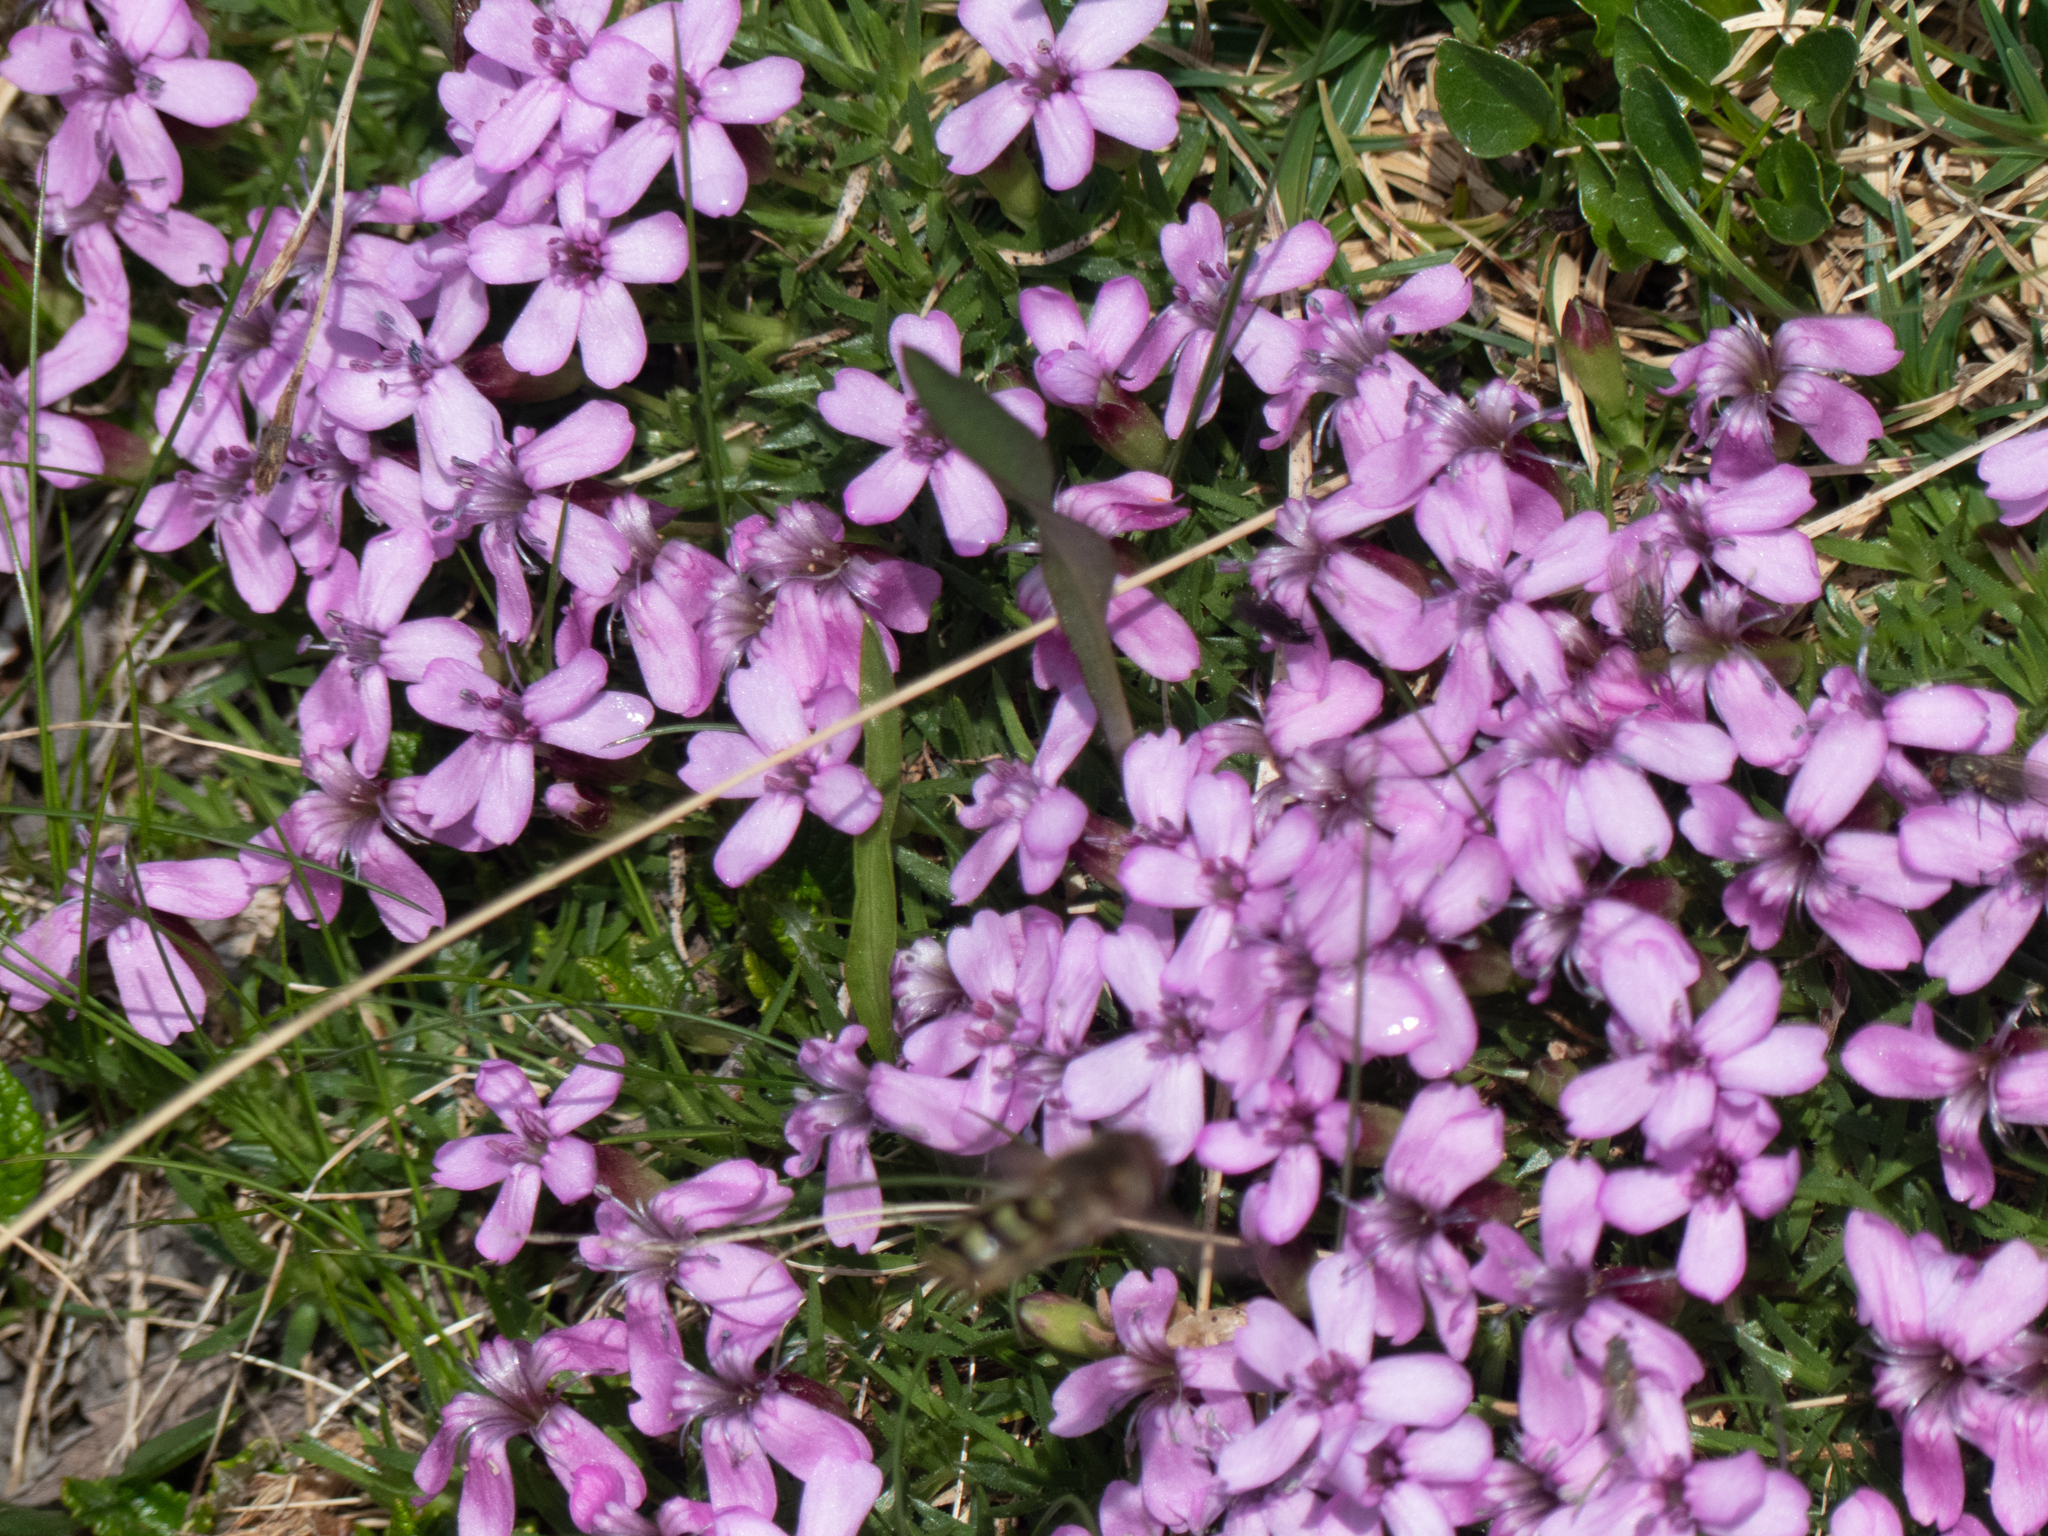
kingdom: Plantae
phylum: Tracheophyta
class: Magnoliopsida
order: Caryophyllales
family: Caryophyllaceae
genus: Silene
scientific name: Silene acaulis
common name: Moss campion
